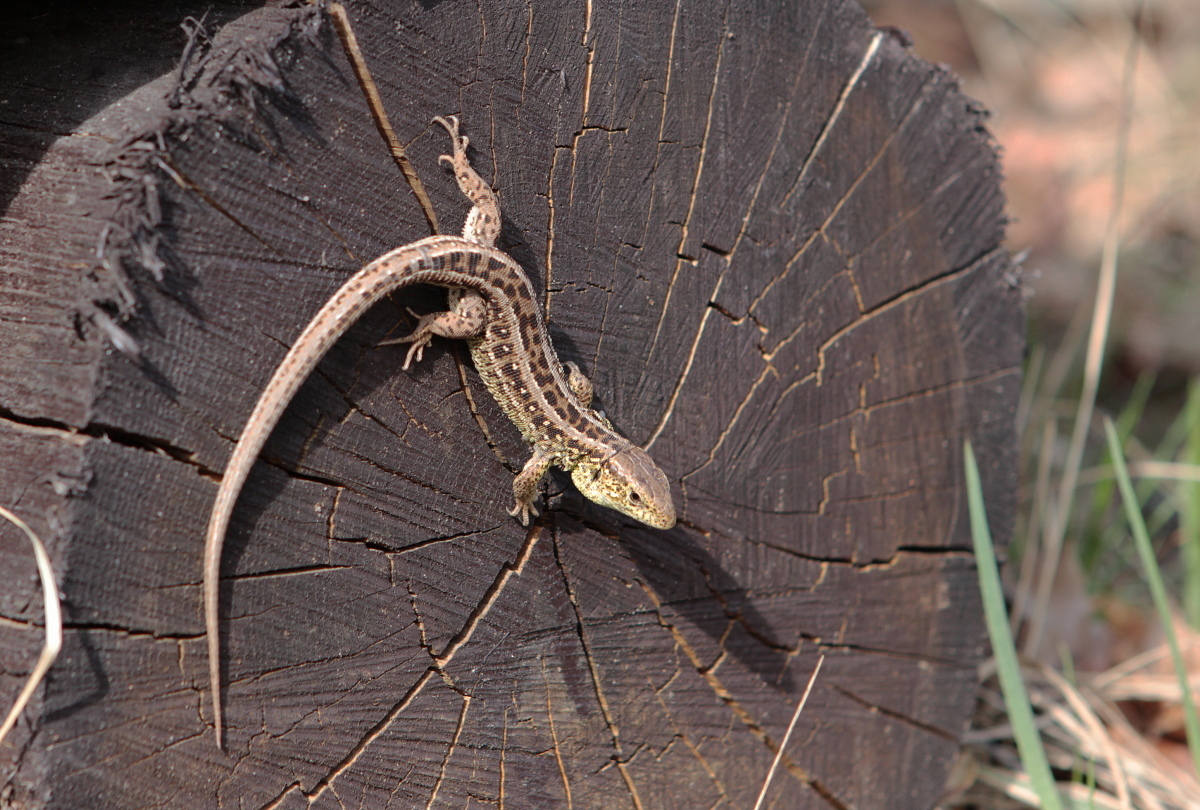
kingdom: Animalia
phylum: Chordata
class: Squamata
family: Lacertidae
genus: Lacerta
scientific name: Lacerta agilis
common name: Sand lizard
